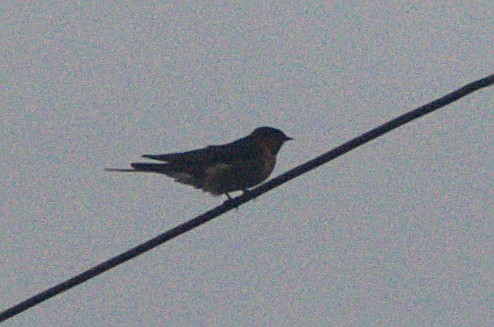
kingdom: Animalia
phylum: Chordata
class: Aves
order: Passeriformes
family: Hirundinidae
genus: Hirundo
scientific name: Hirundo neoxena
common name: Welcome swallow
